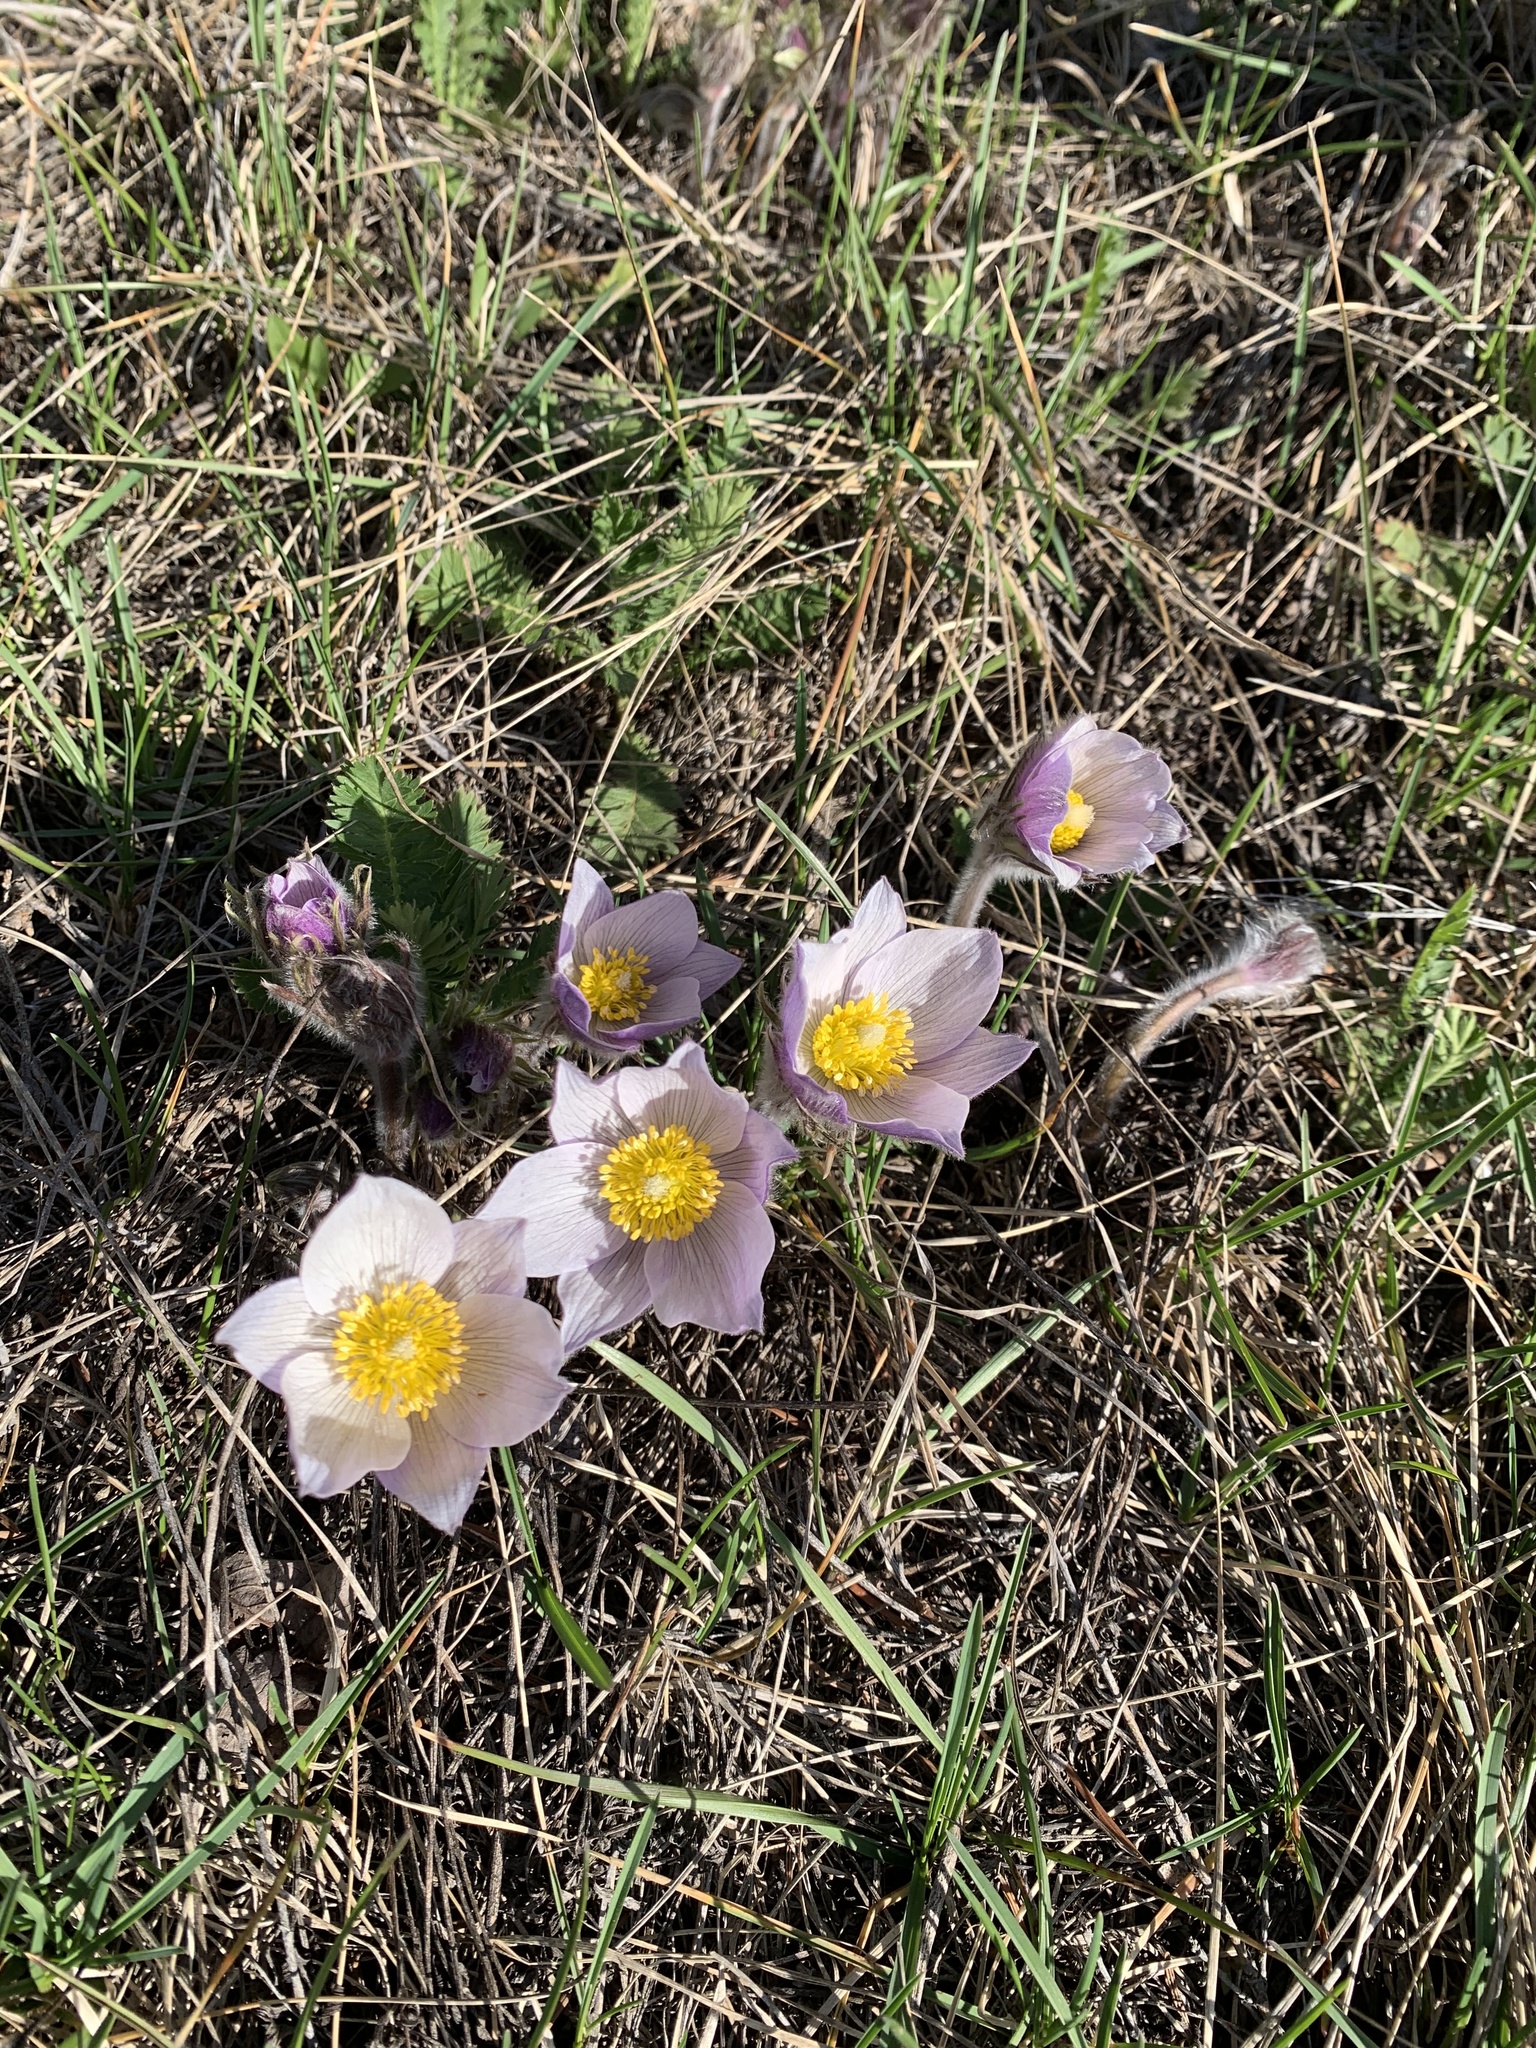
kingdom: Plantae
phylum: Tracheophyta
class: Magnoliopsida
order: Ranunculales
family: Ranunculaceae
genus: Pulsatilla
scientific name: Pulsatilla nuttalliana
